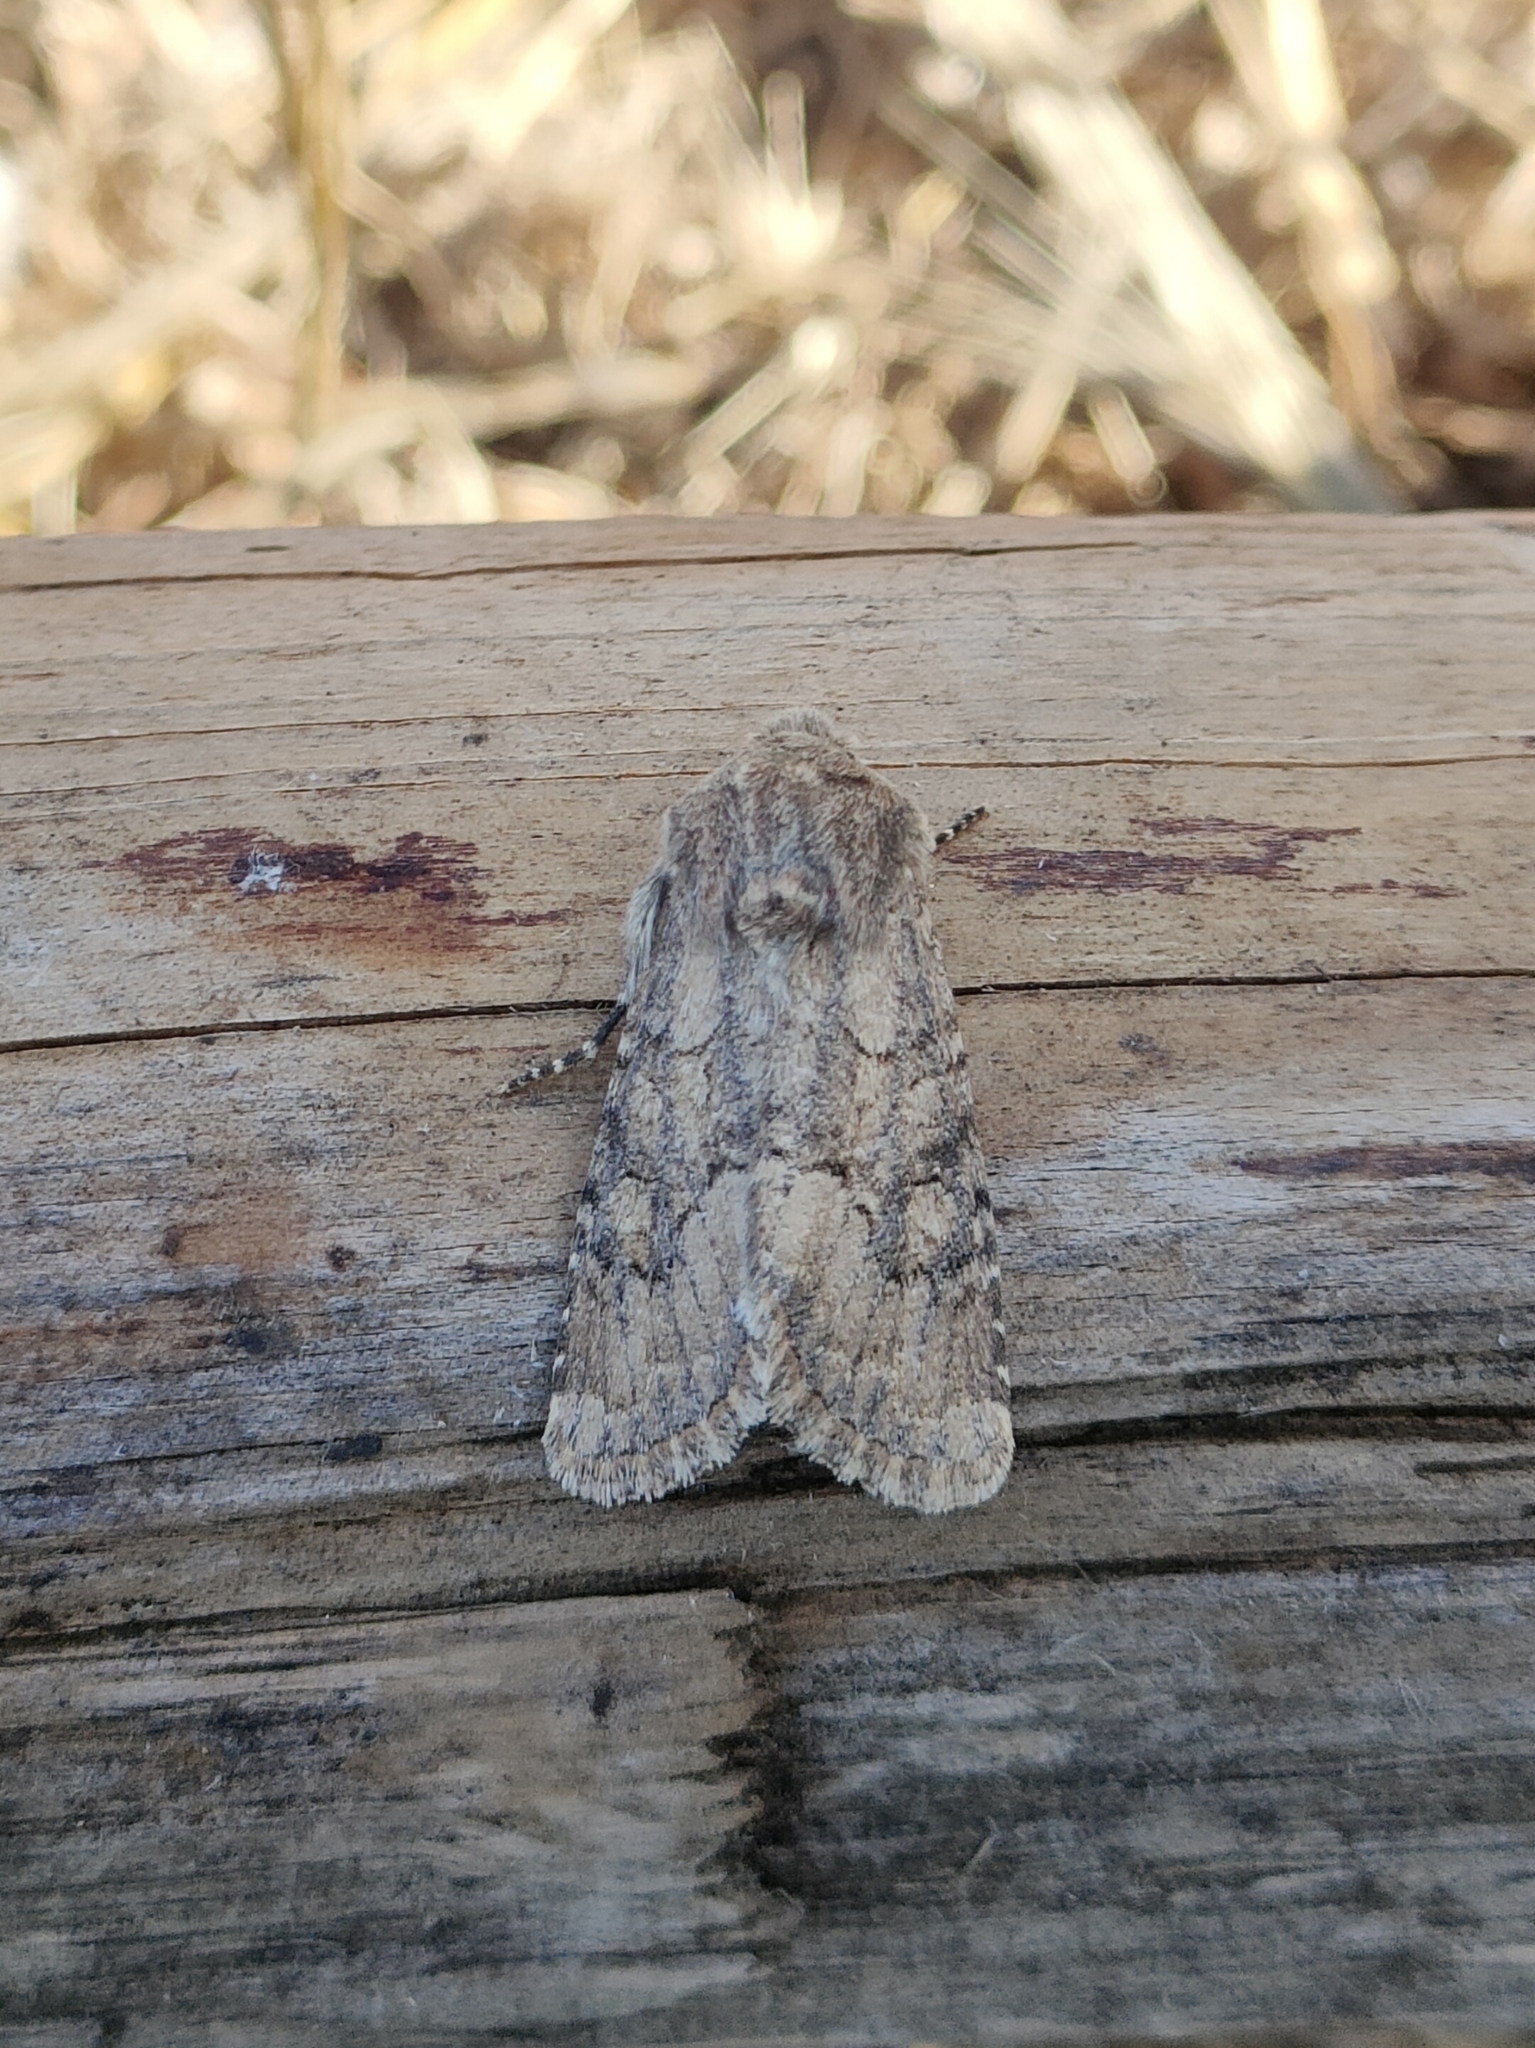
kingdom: Animalia
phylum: Arthropoda
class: Insecta
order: Lepidoptera
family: Noctuidae
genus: Luperina
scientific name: Luperina testacea
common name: Flounced rustic
